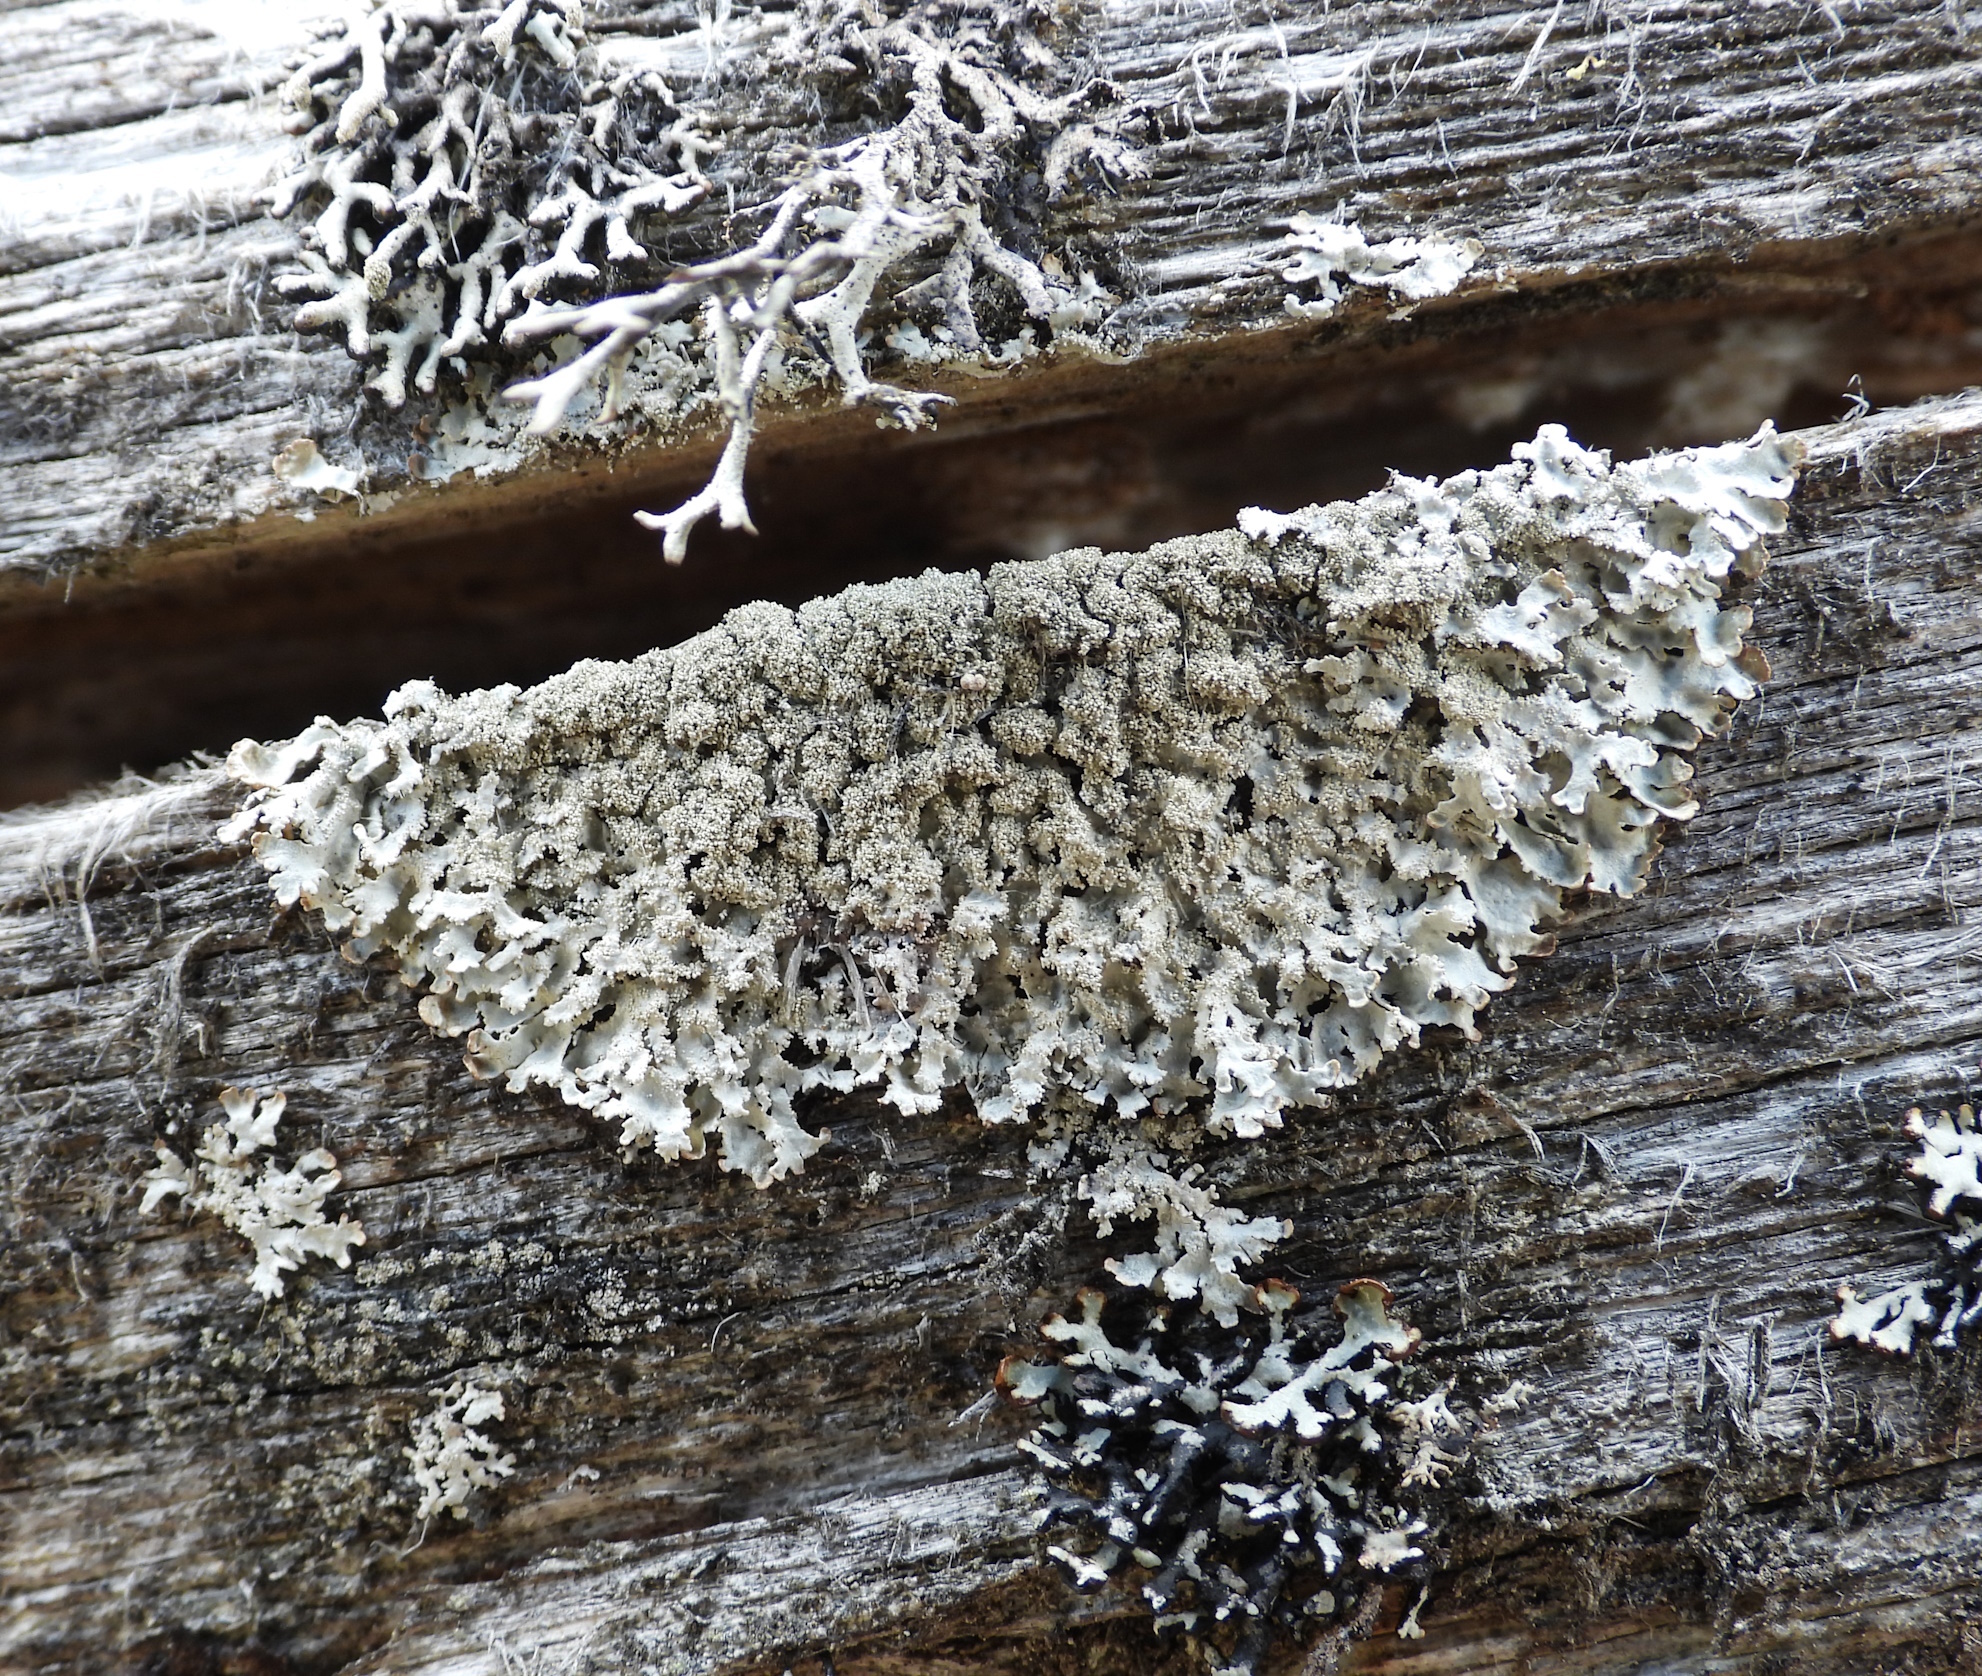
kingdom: Fungi
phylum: Ascomycota
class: Lecanoromycetes
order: Lecanorales
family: Parmeliaceae
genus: Imshaugia
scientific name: Imshaugia aleurites
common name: Salted starburst lichen
